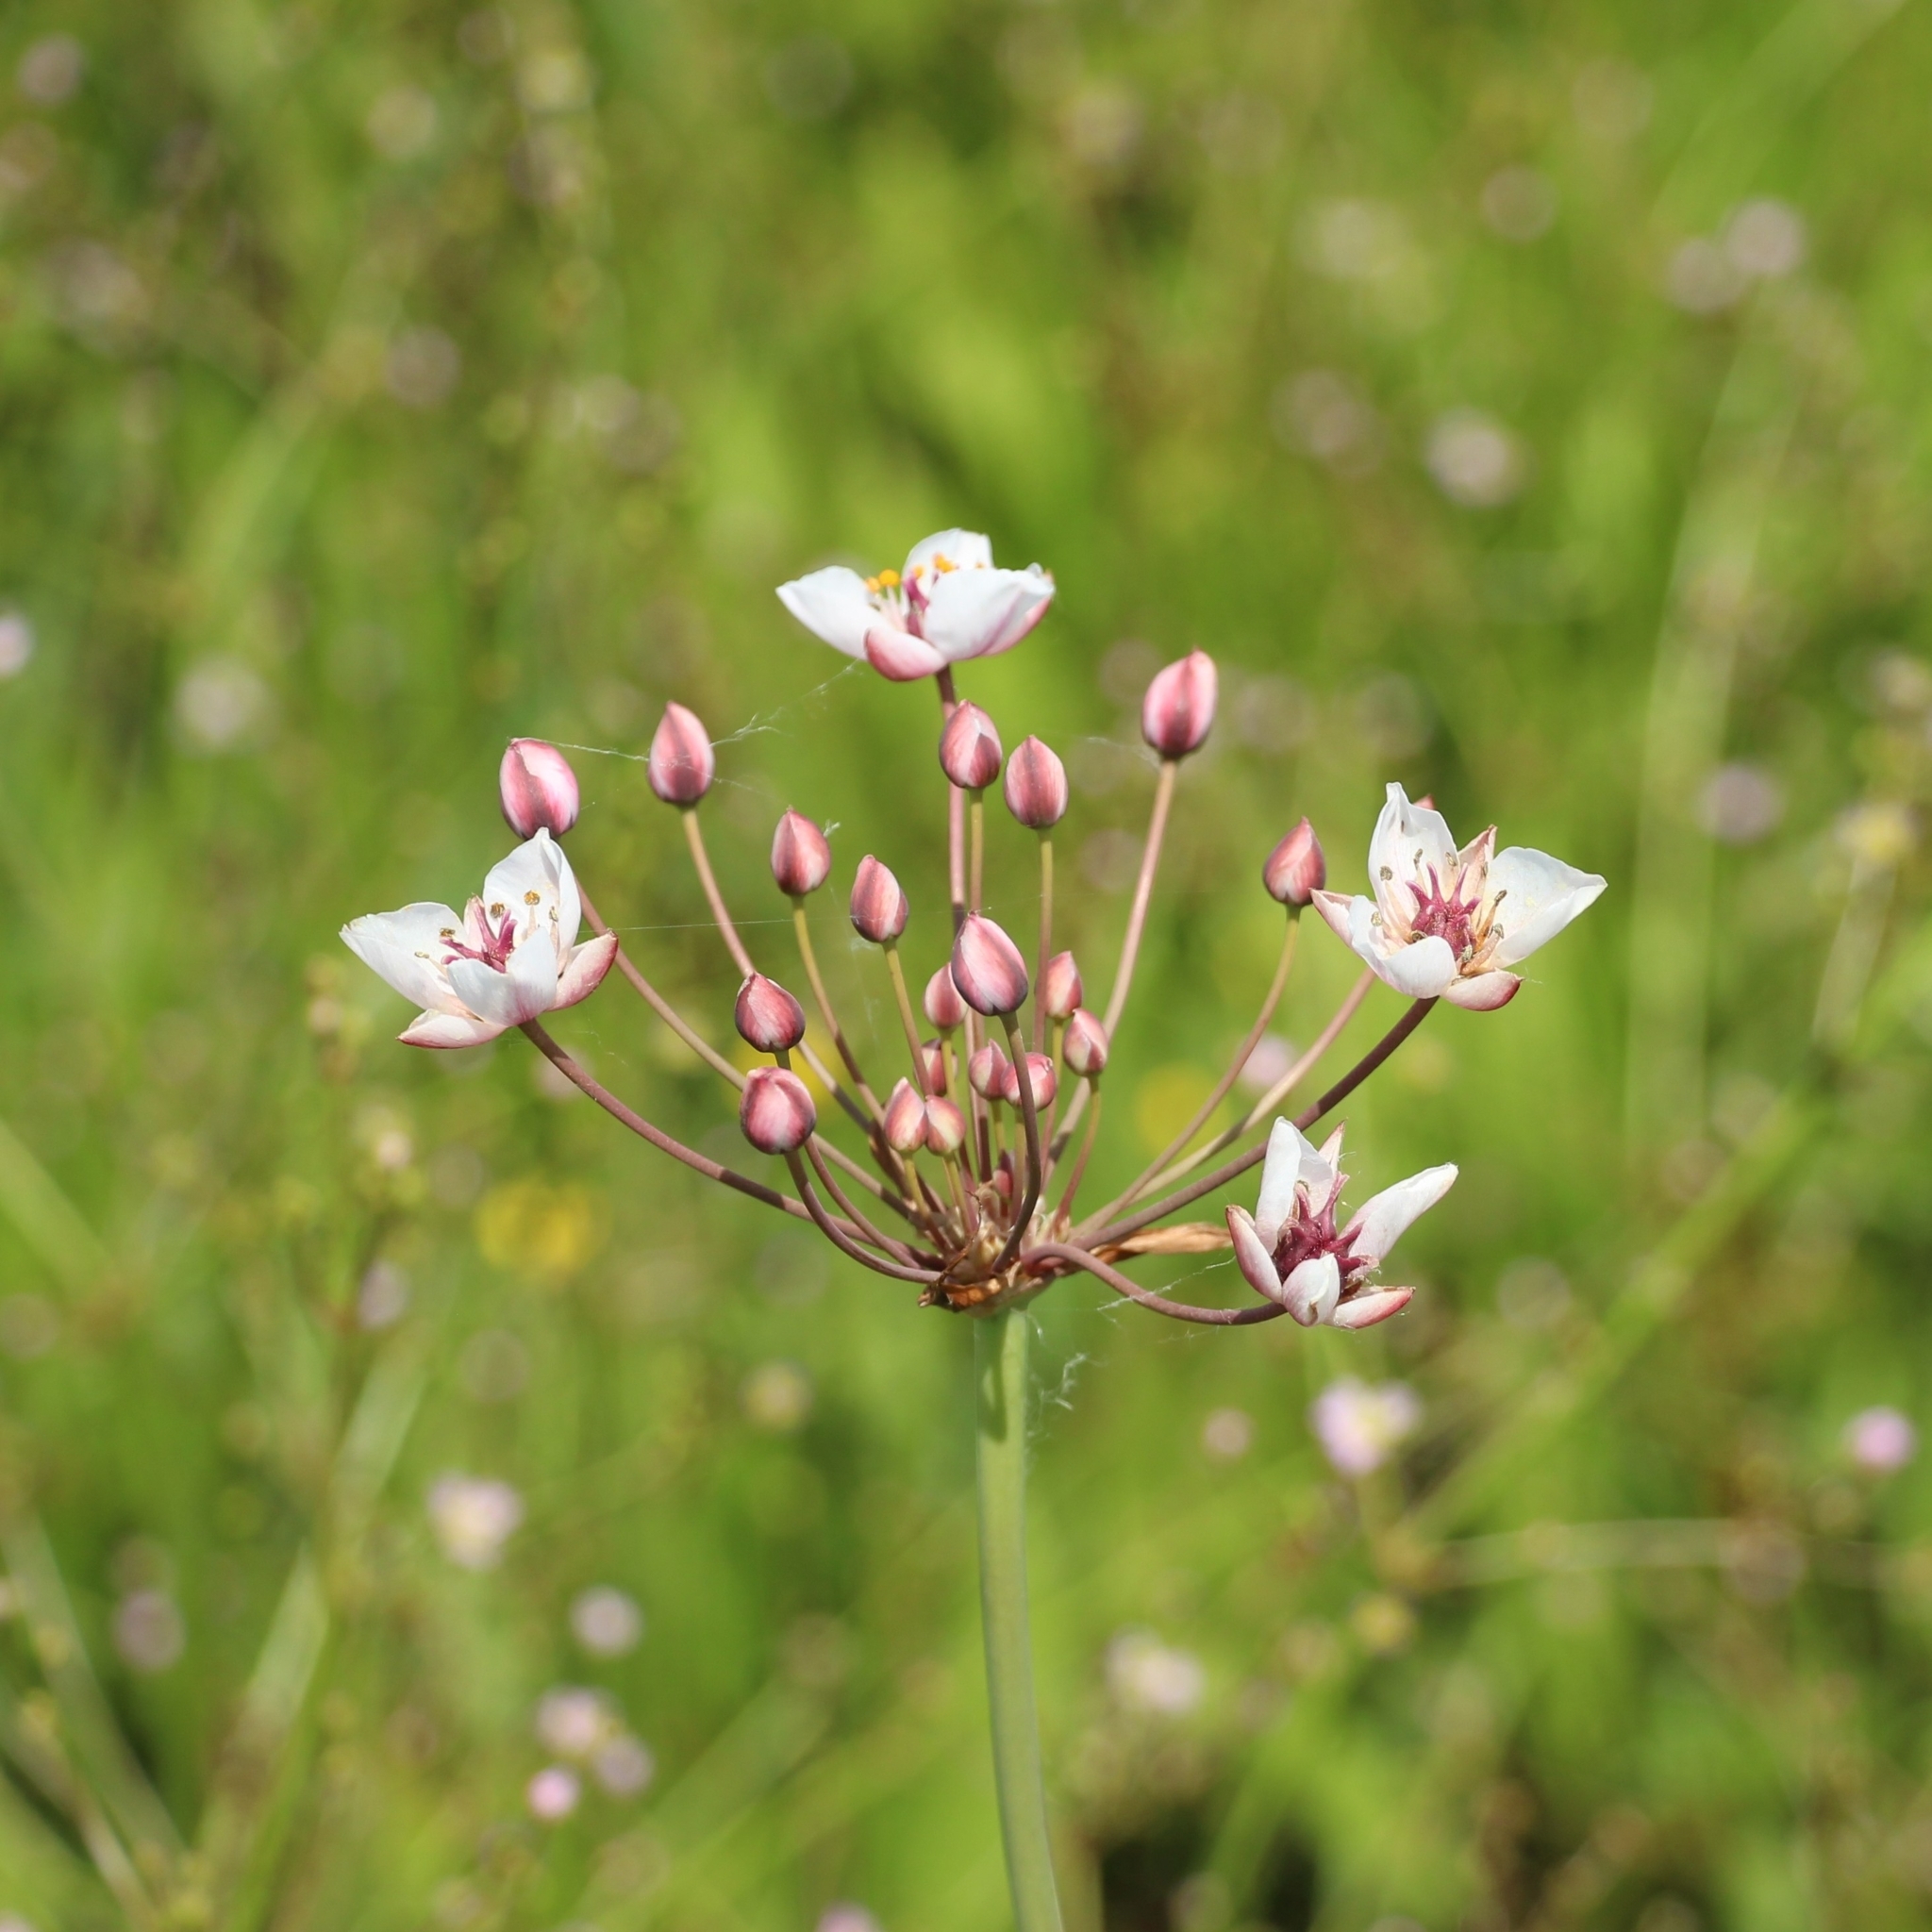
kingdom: Plantae
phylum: Tracheophyta
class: Liliopsida
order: Alismatales
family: Butomaceae
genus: Butomus
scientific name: Butomus umbellatus
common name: Flowering-rush
